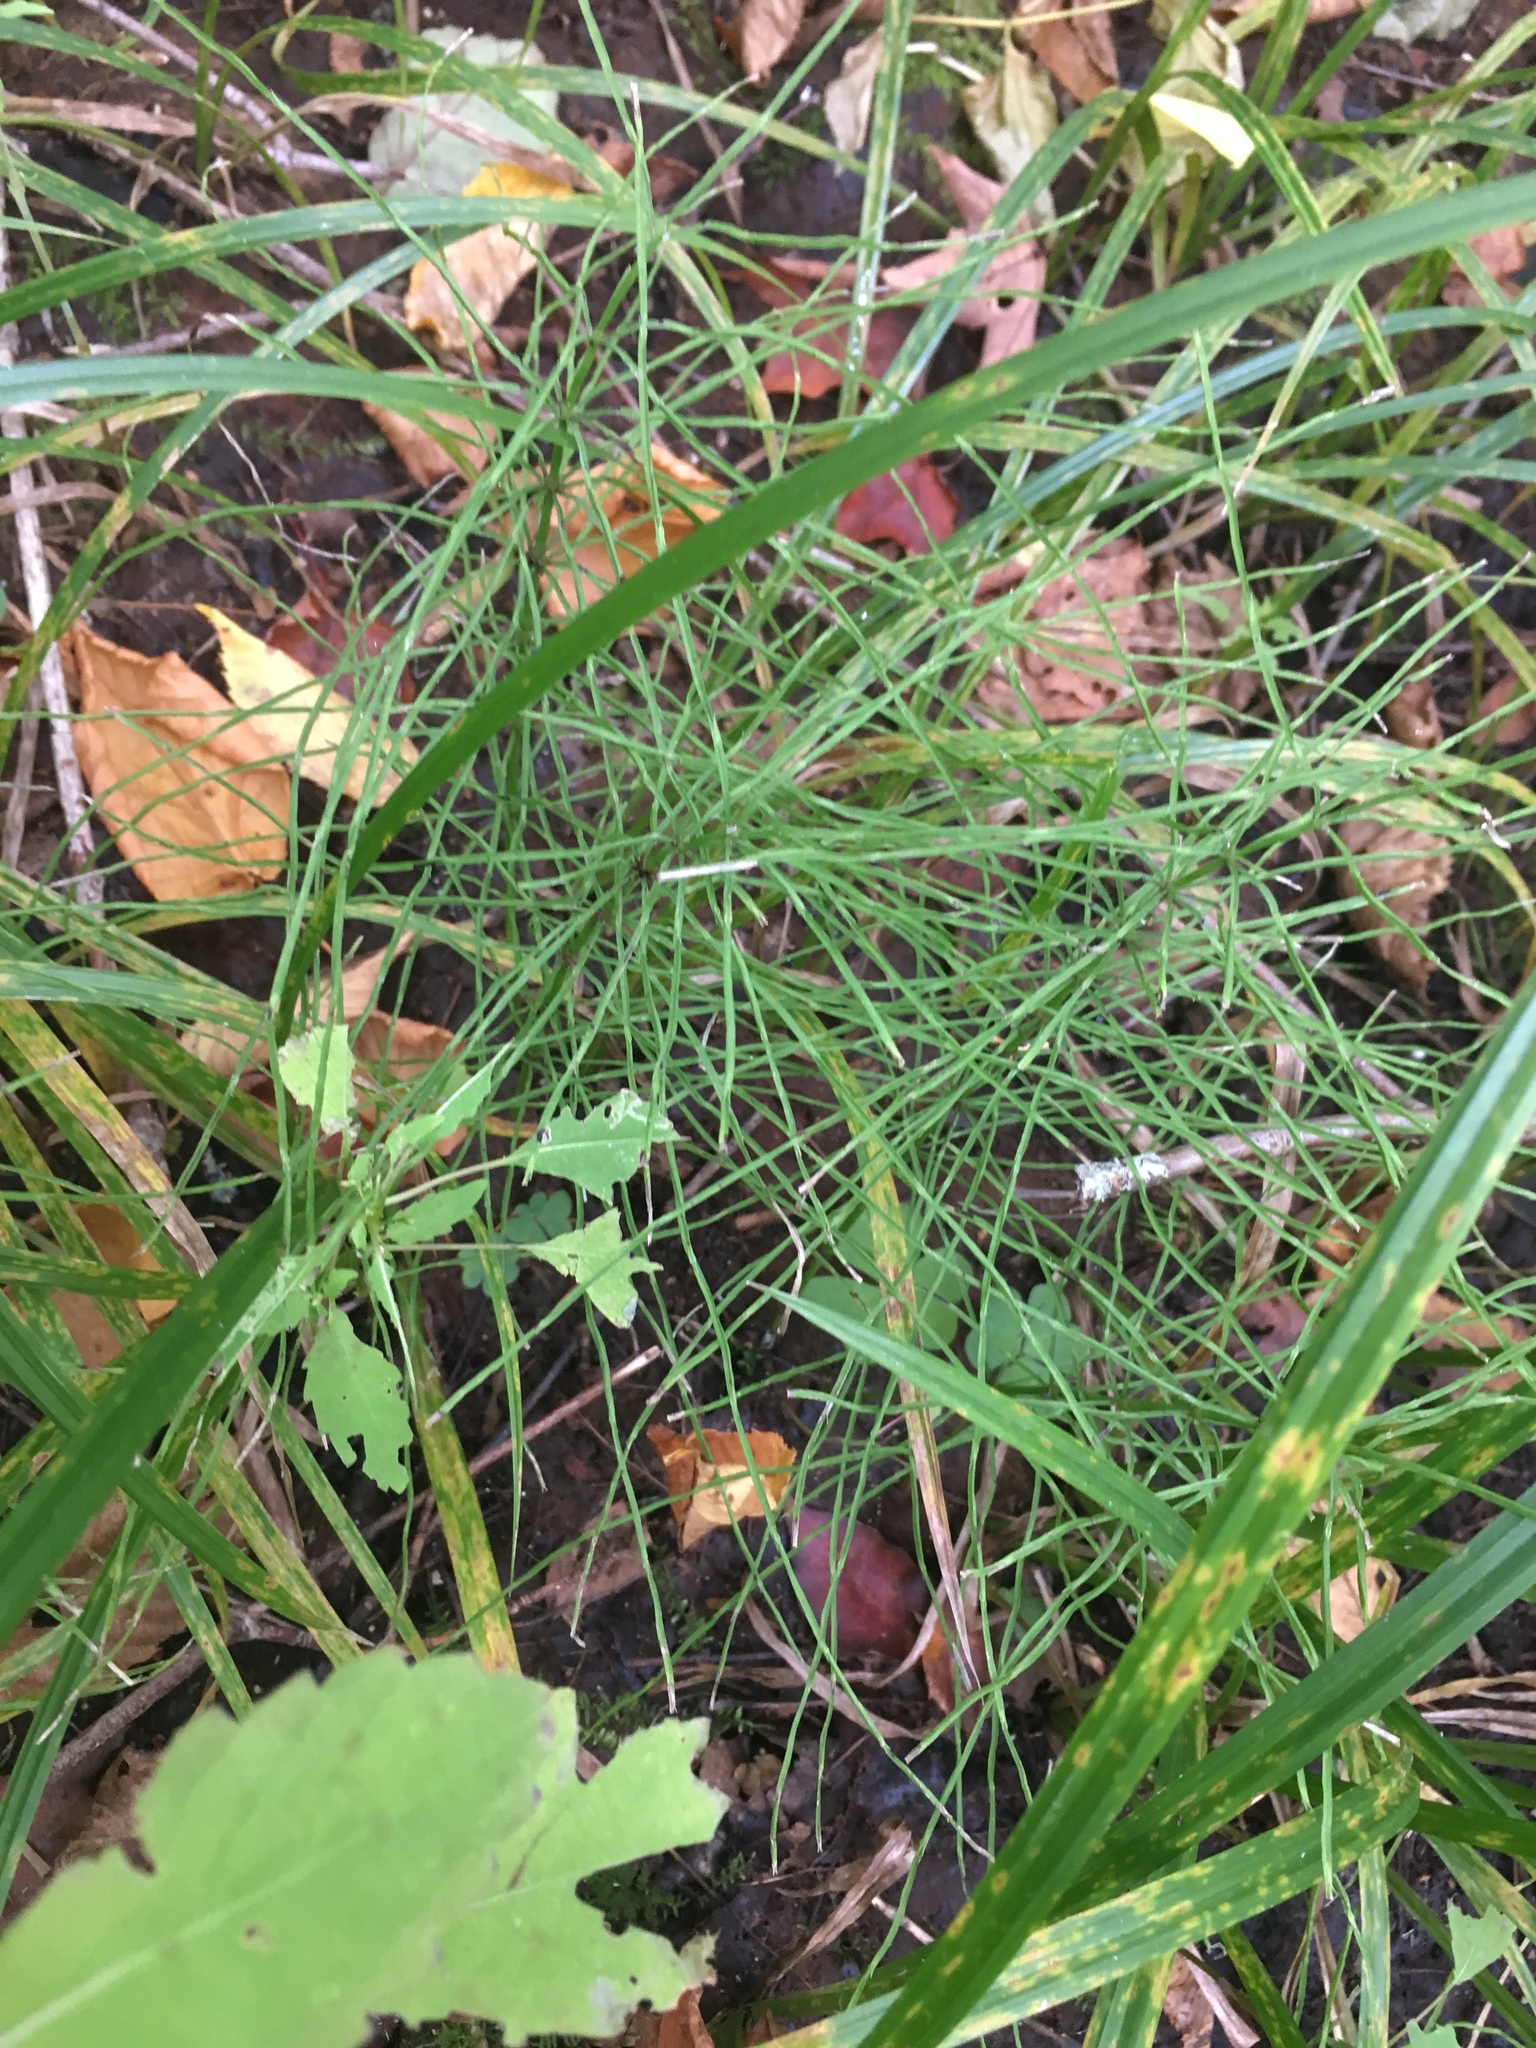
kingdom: Plantae
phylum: Tracheophyta
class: Polypodiopsida
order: Equisetales
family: Equisetaceae
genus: Equisetum
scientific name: Equisetum arvense
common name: Field horsetail
